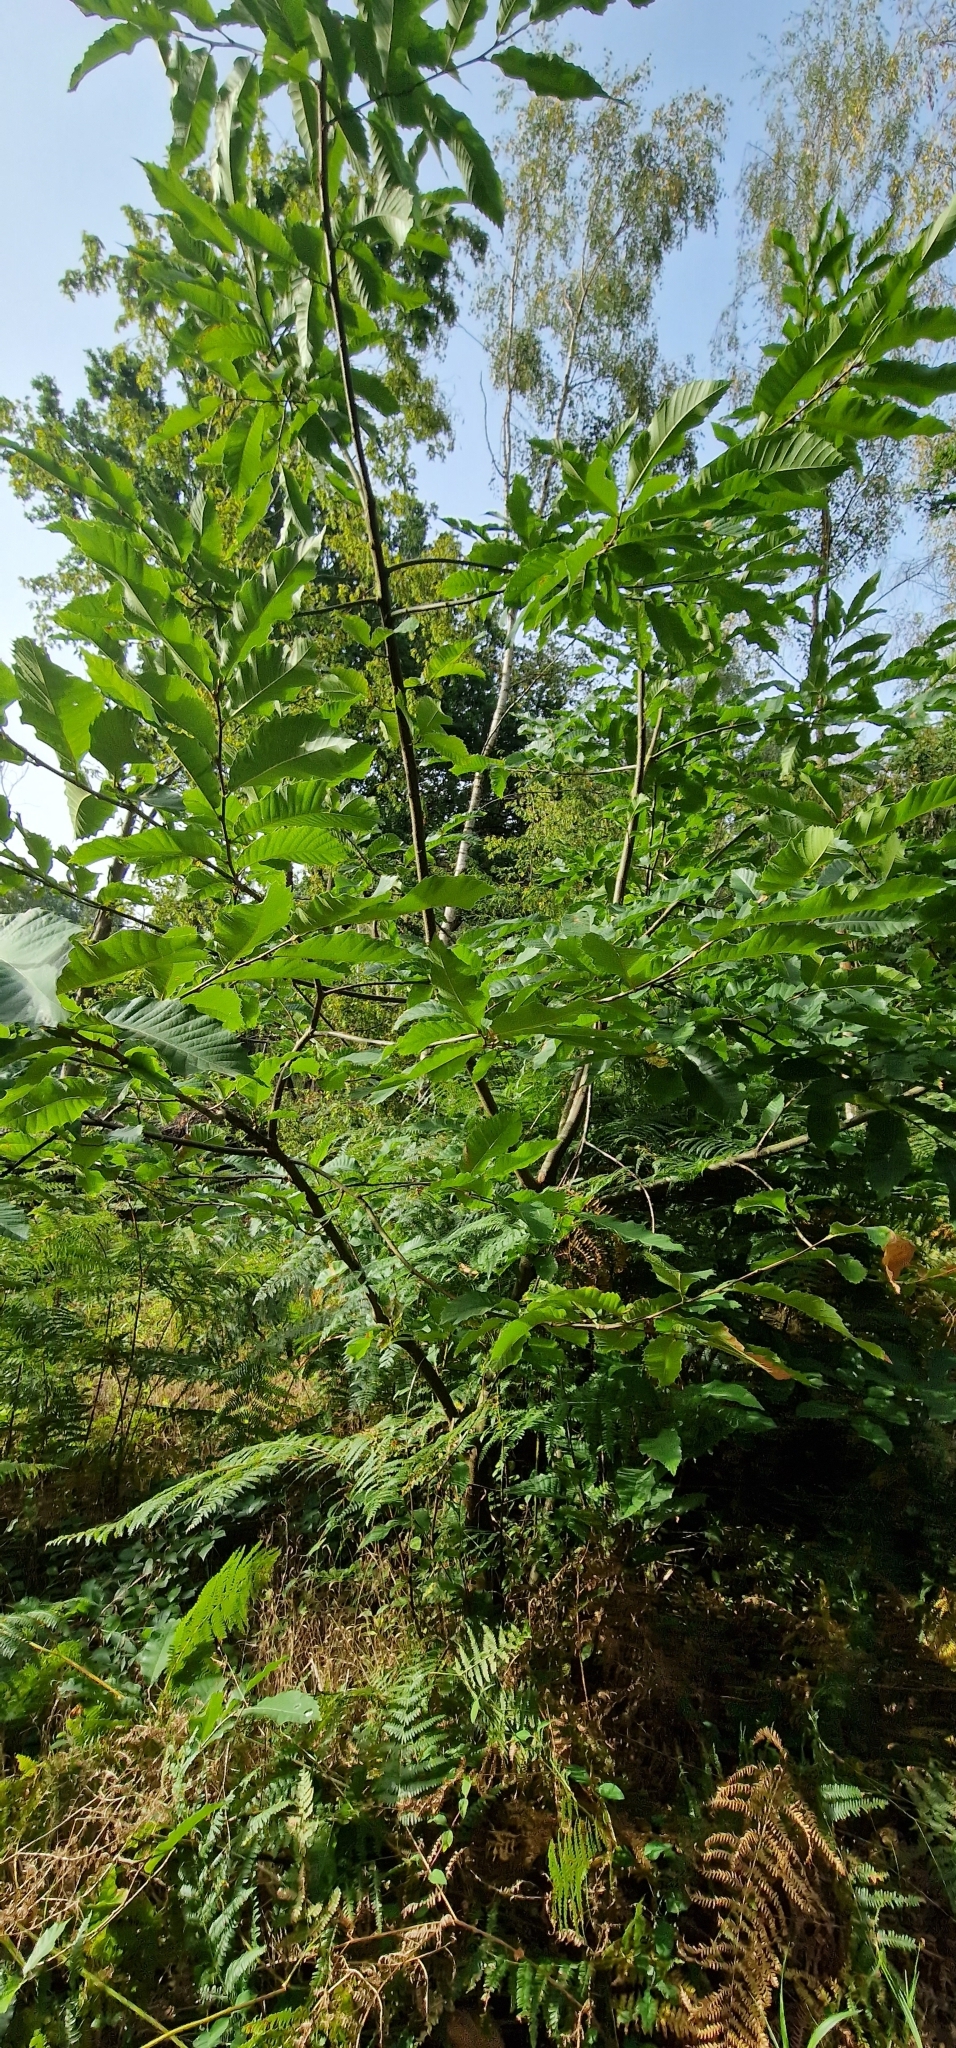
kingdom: Plantae
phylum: Tracheophyta
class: Magnoliopsida
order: Fagales
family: Fagaceae
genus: Castanea
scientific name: Castanea sativa
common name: Sweet chestnut
